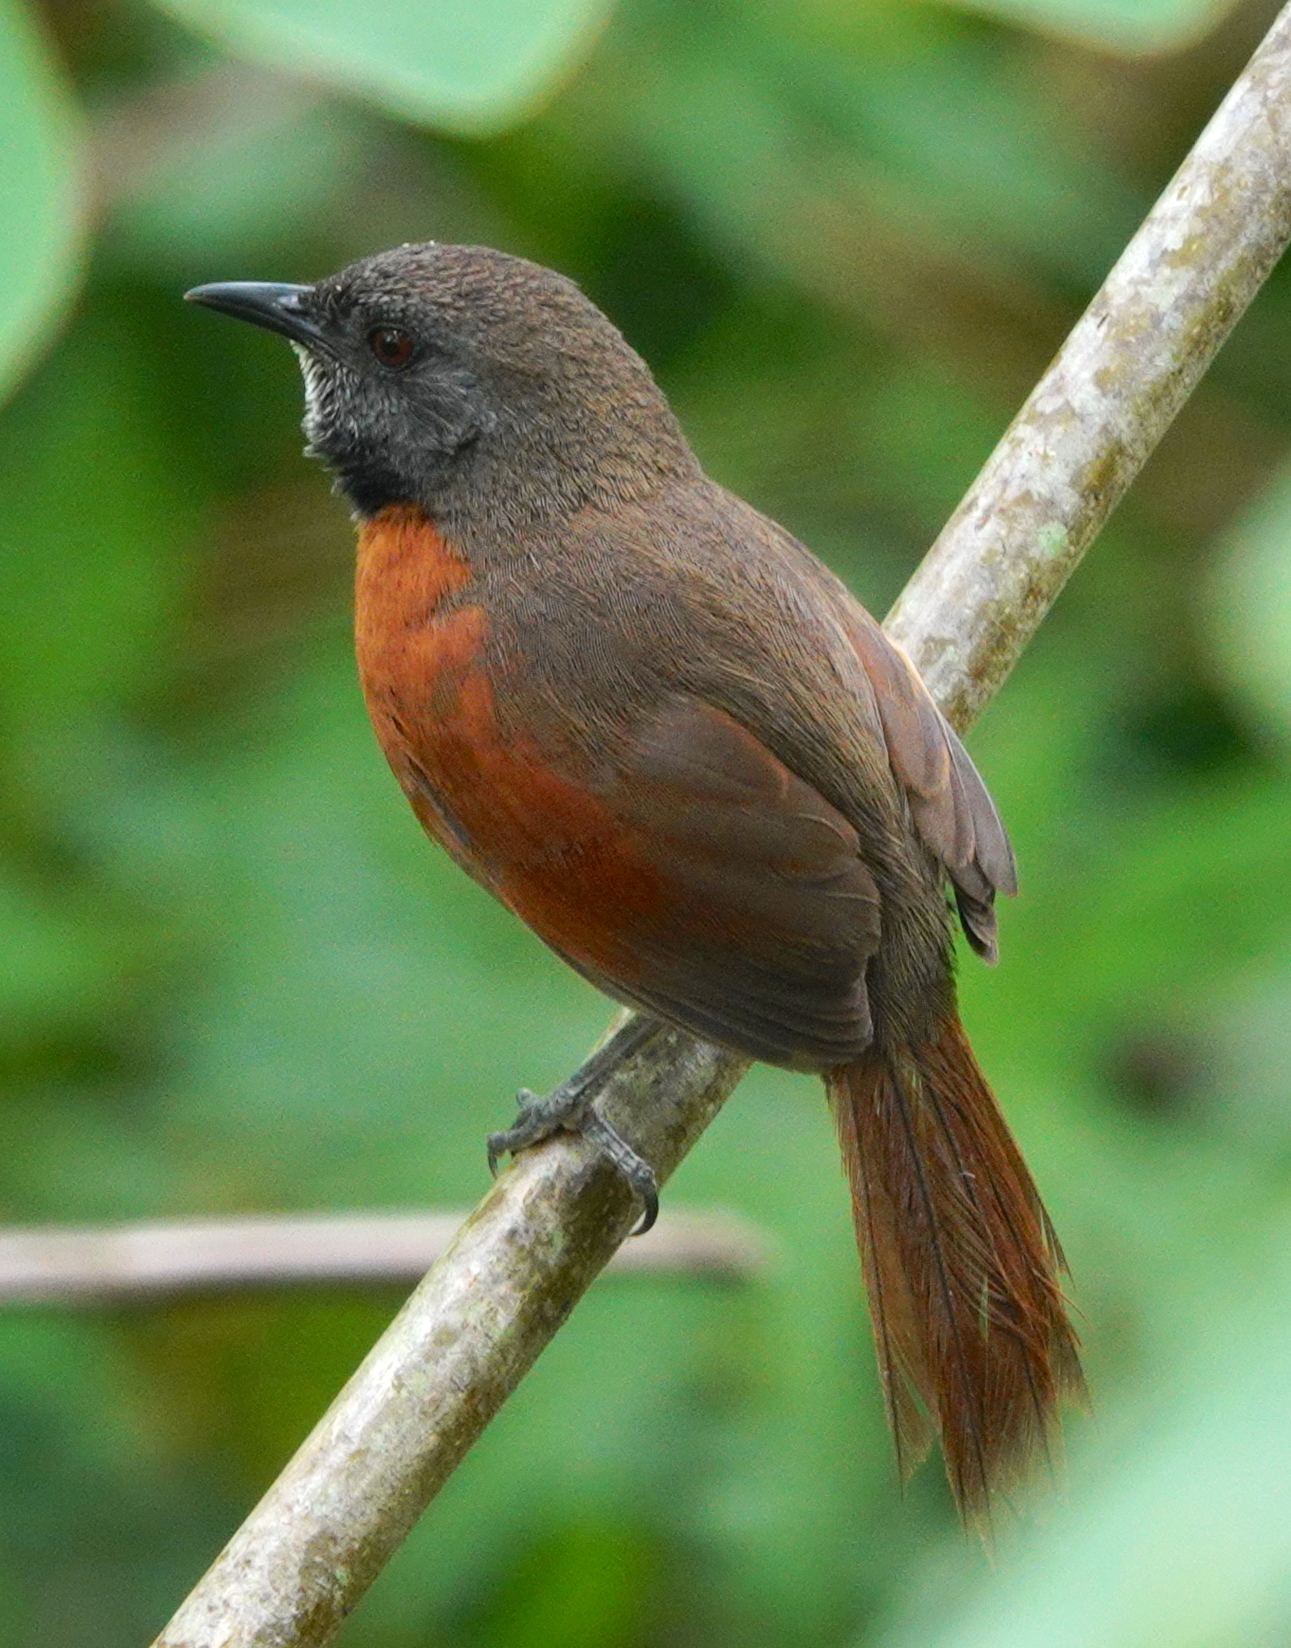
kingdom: Animalia
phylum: Chordata
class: Aves
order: Passeriformes
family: Furnariidae
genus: Synallaxis
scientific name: Synallaxis erythrothorax
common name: Rufous-breasted spinetail
